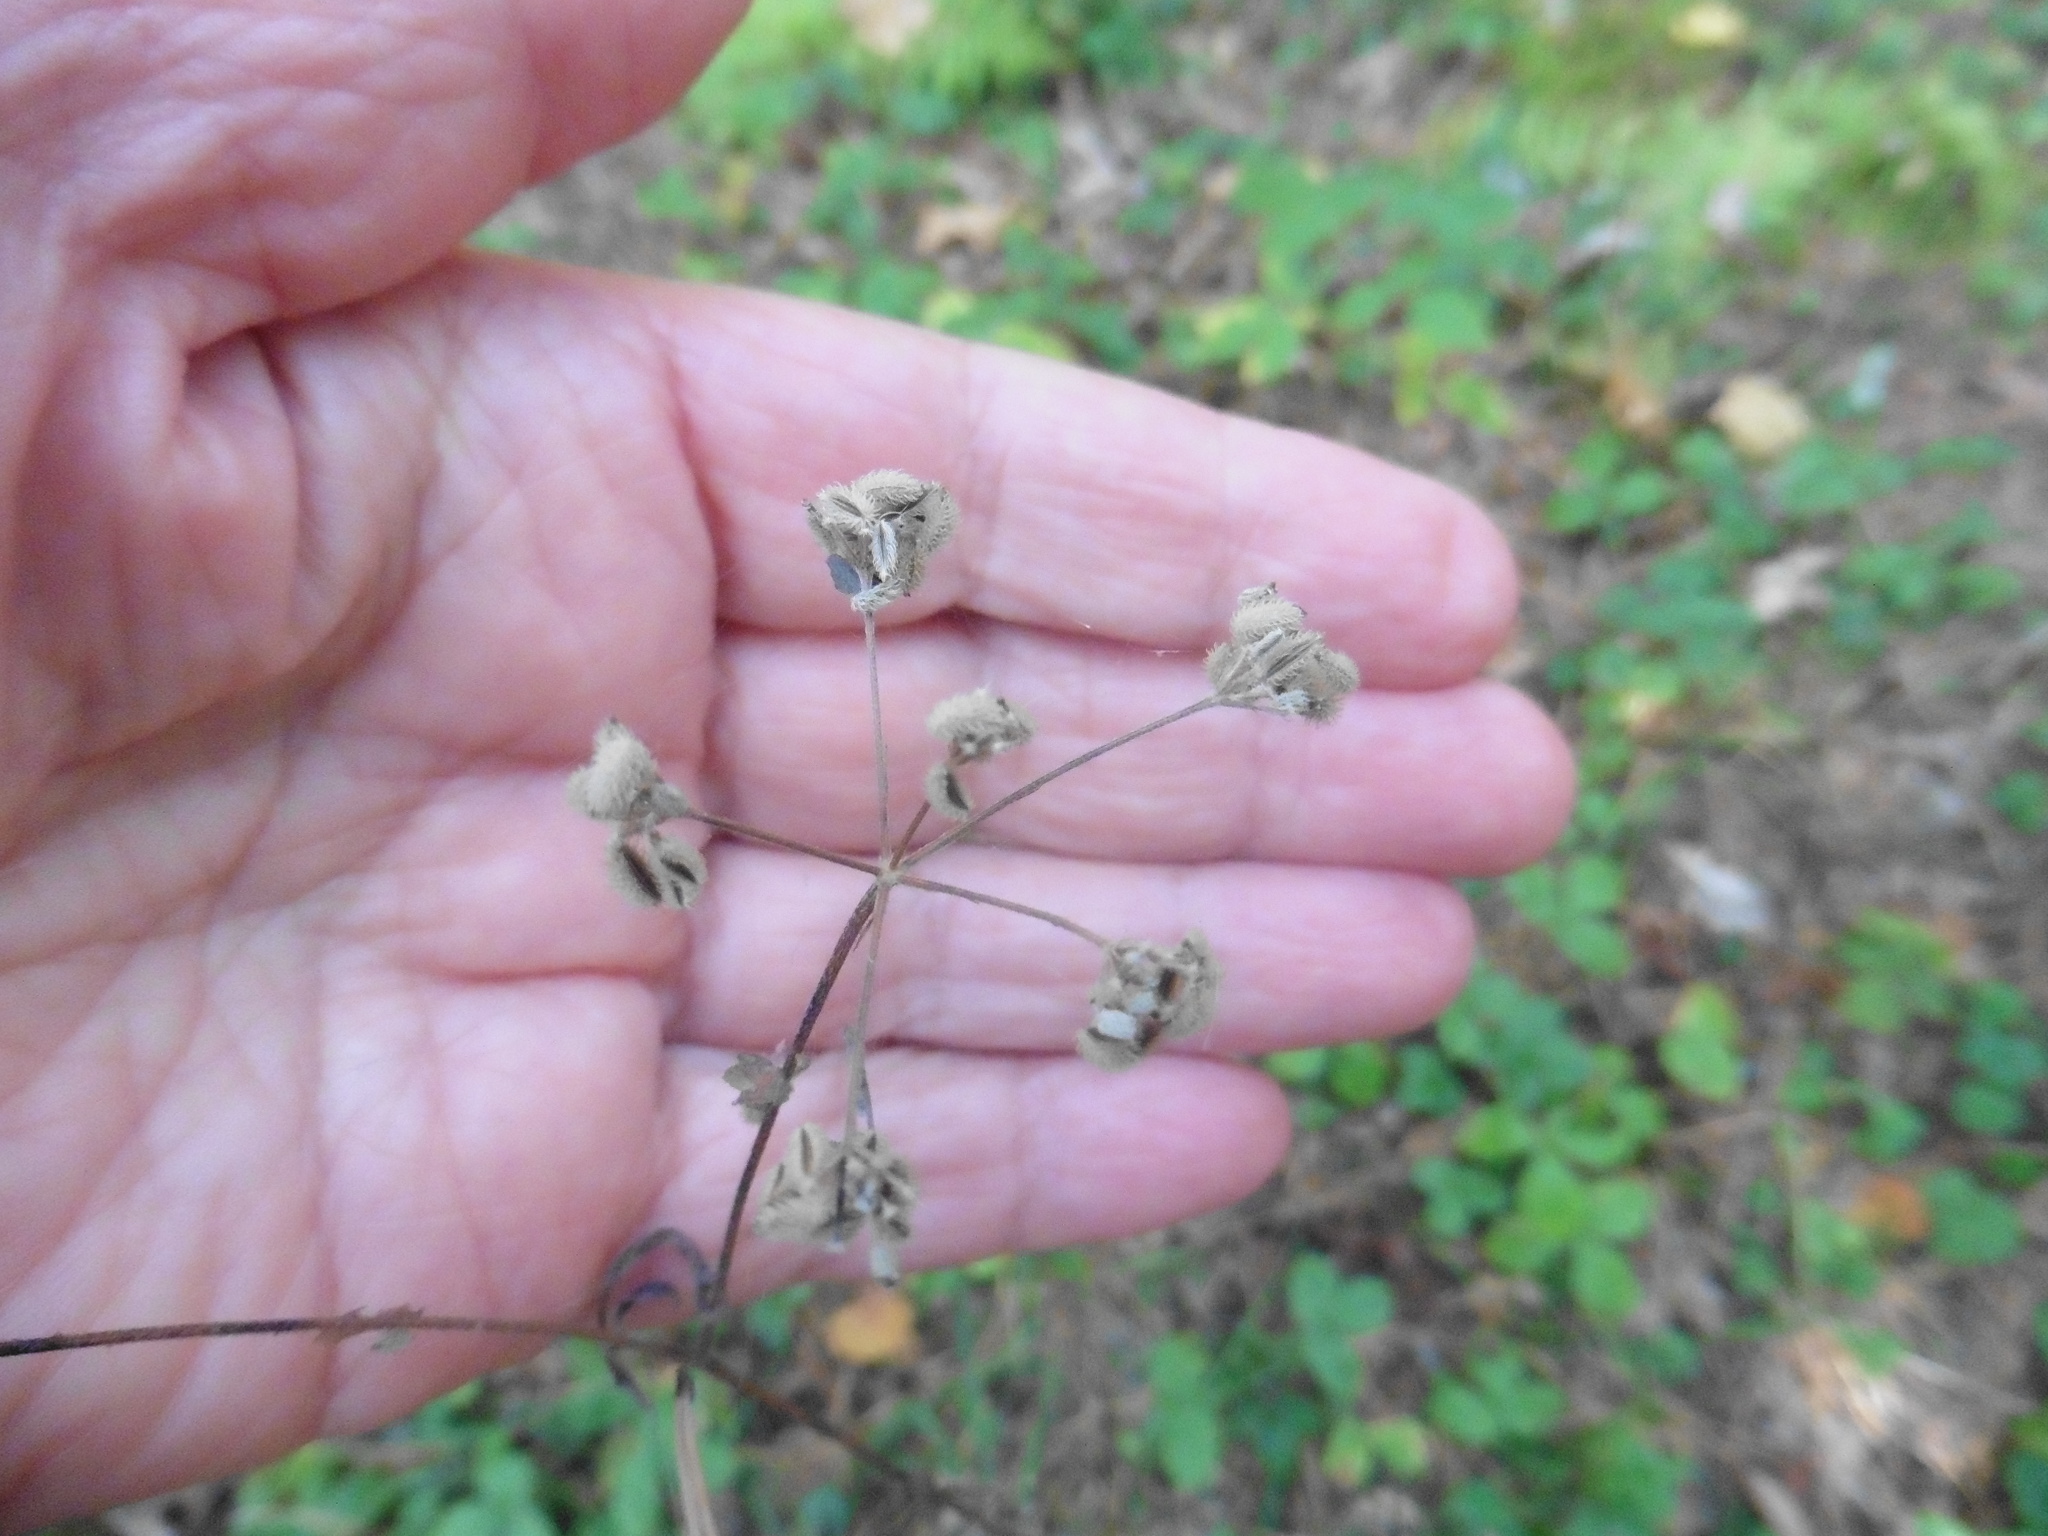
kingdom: Plantae
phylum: Tracheophyta
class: Magnoliopsida
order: Apiales
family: Apiaceae
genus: Torilis
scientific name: Torilis japonica
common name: Upright hedge-parsley
